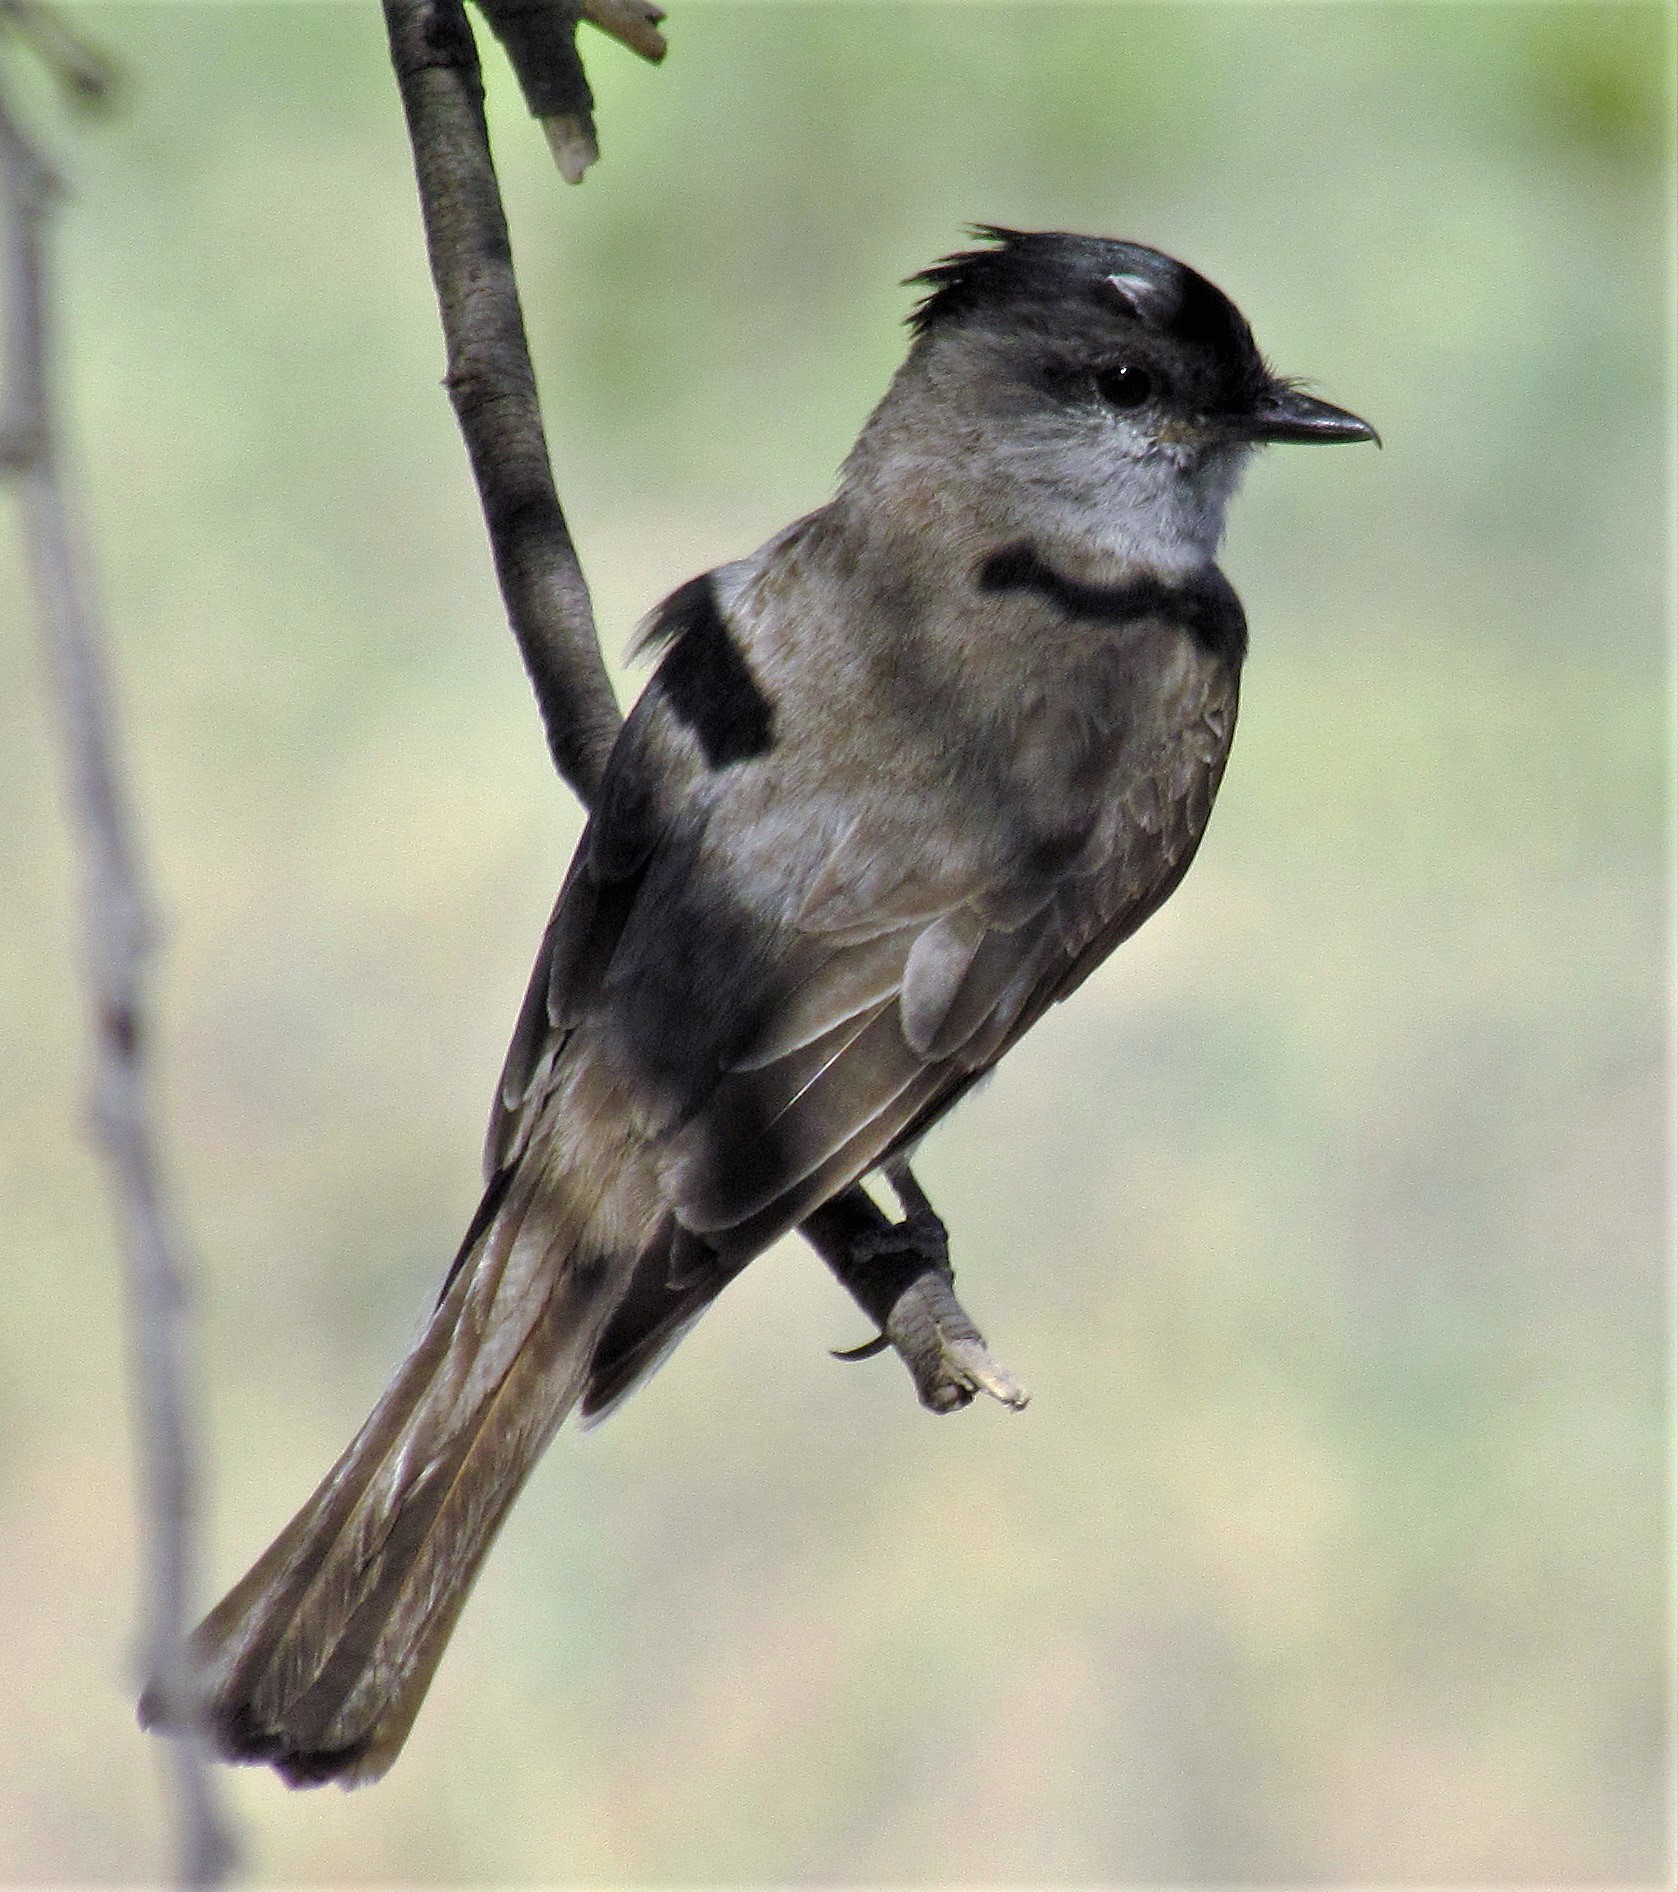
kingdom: Animalia
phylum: Chordata
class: Aves
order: Passeriformes
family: Tyrannidae
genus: Empidonomus
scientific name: Empidonomus aurantioatrocristatus
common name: Crowned slaty flycatcher
